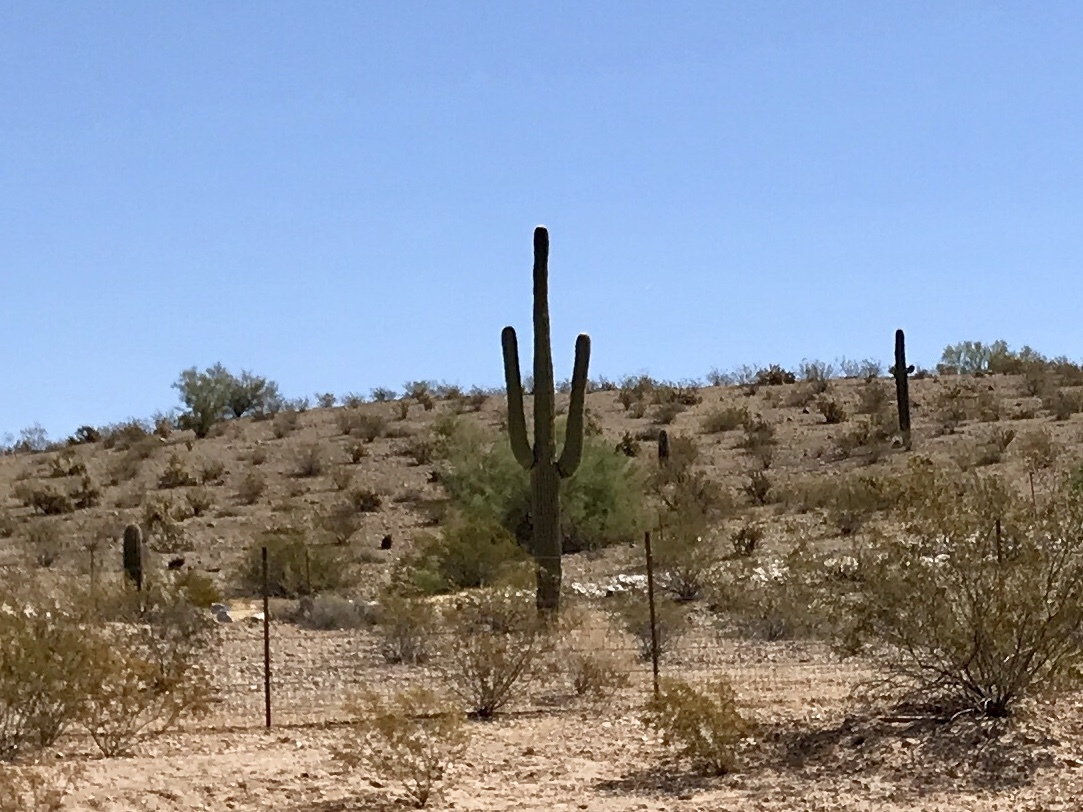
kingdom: Plantae
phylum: Tracheophyta
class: Magnoliopsida
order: Caryophyllales
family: Cactaceae
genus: Carnegiea
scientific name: Carnegiea gigantea
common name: Saguaro
